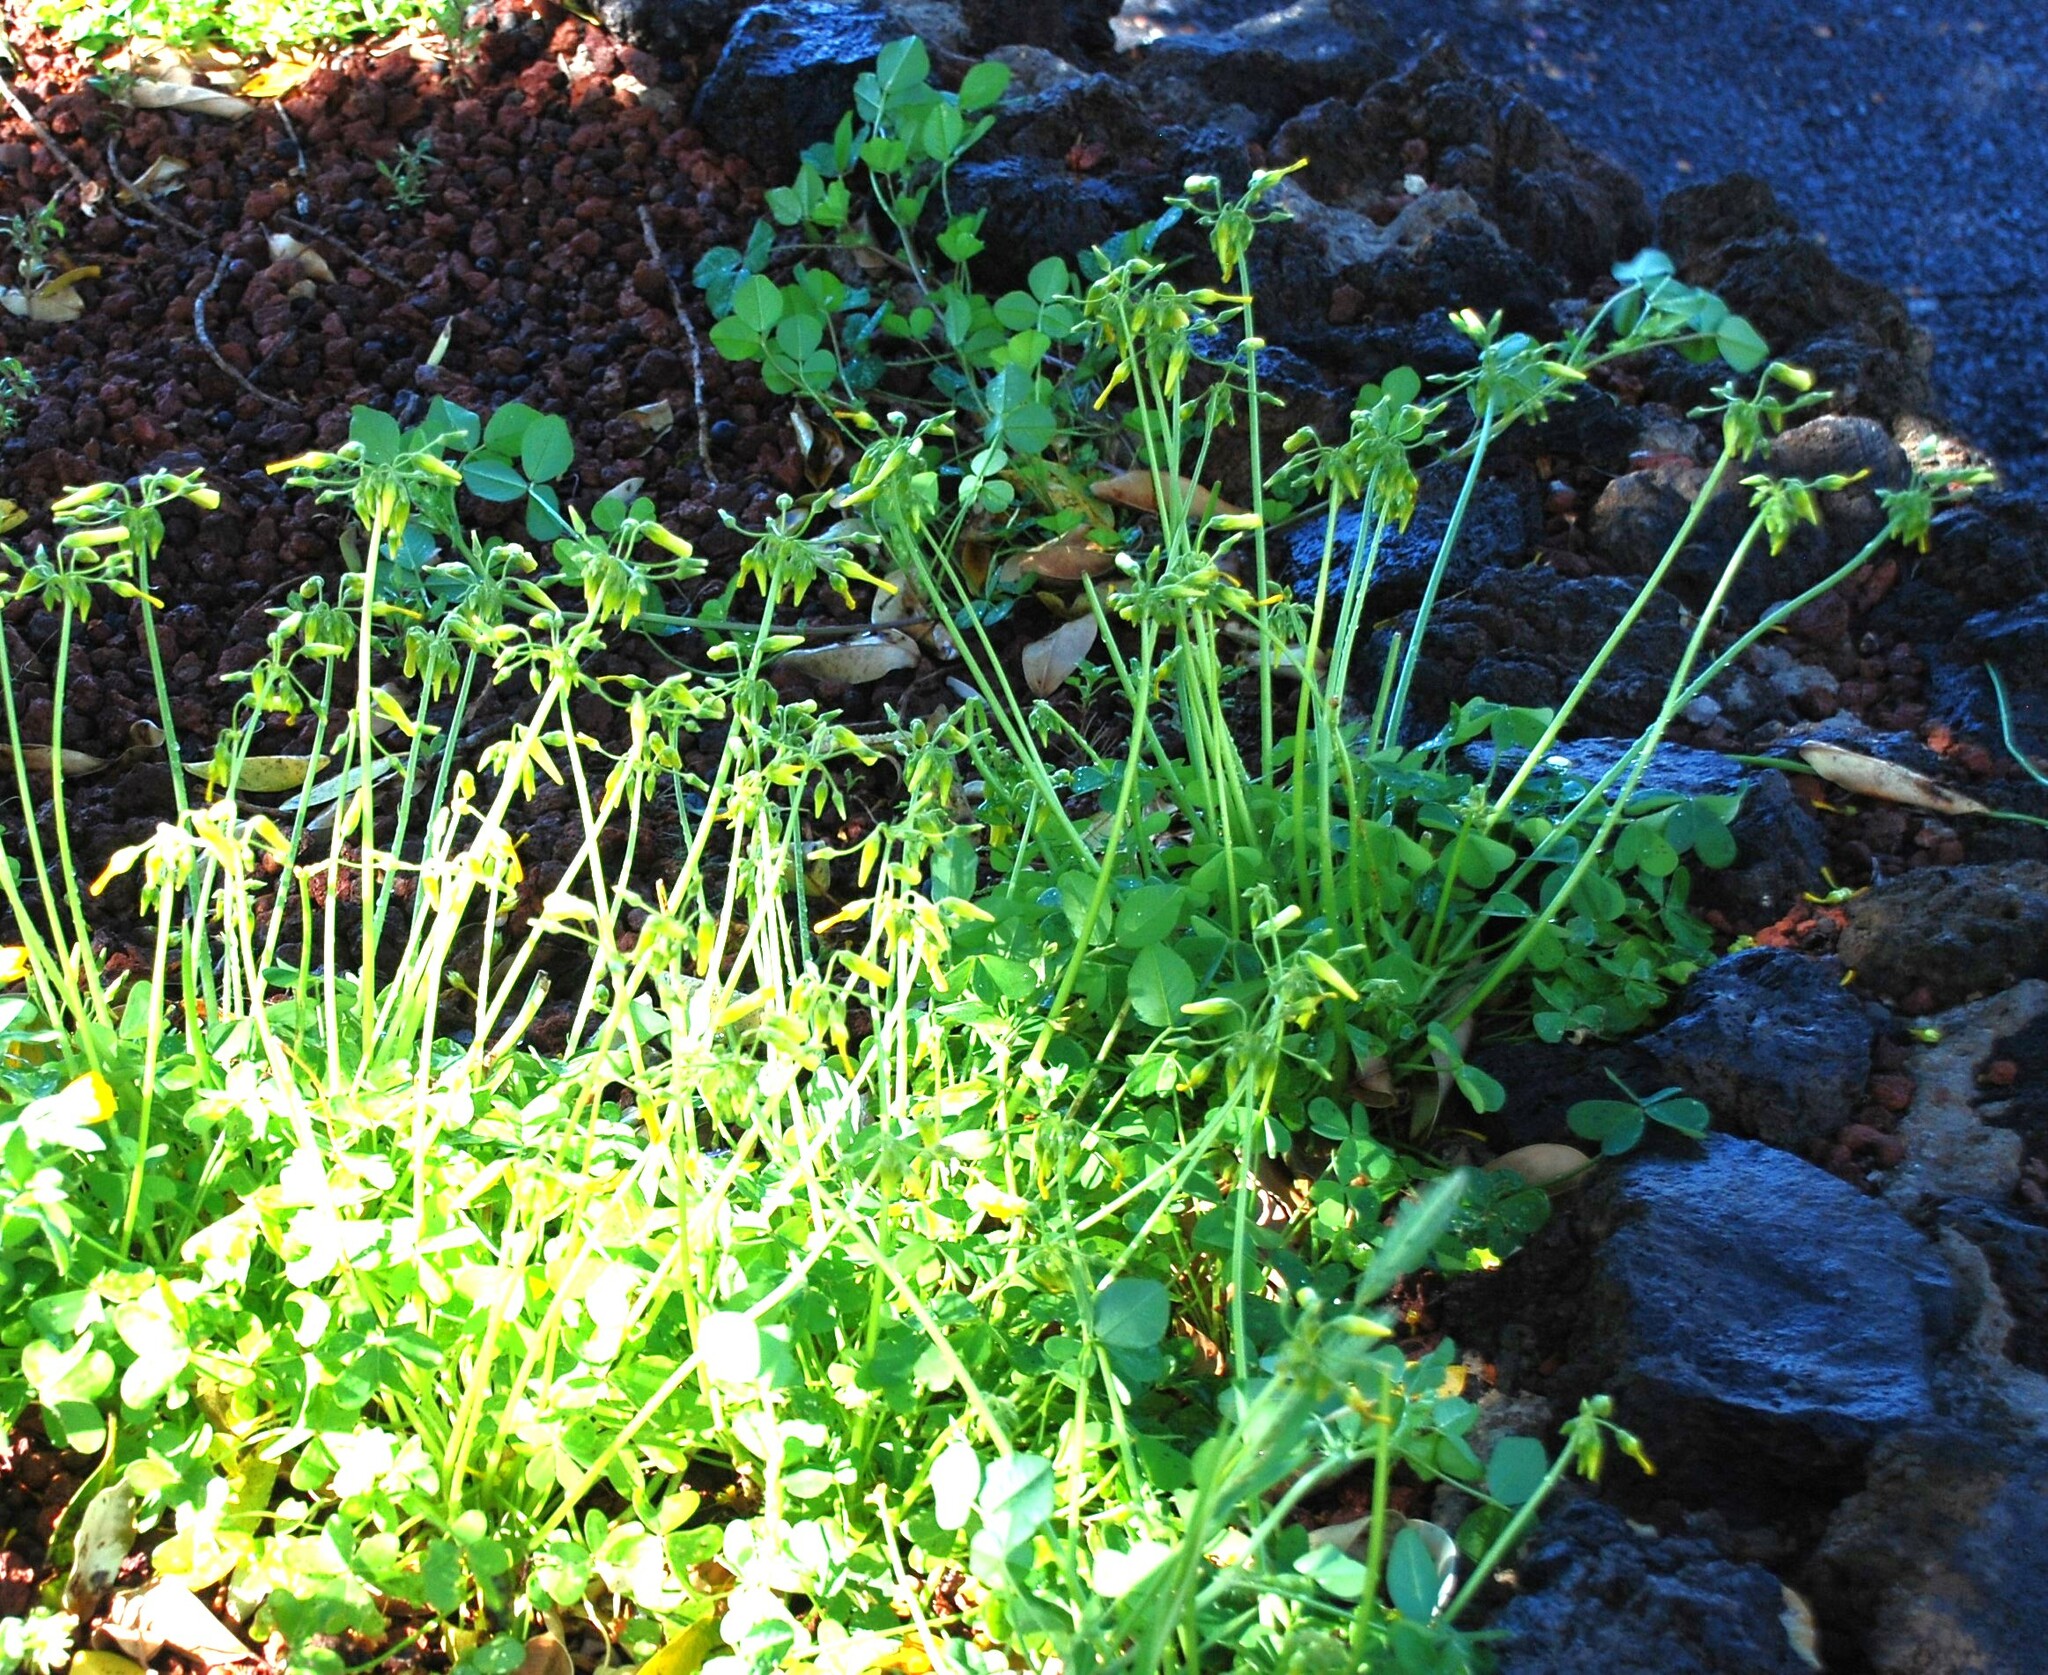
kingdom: Plantae
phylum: Tracheophyta
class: Magnoliopsida
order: Oxalidales
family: Oxalidaceae
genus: Oxalis
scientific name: Oxalis pes-caprae
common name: Bermuda-buttercup
